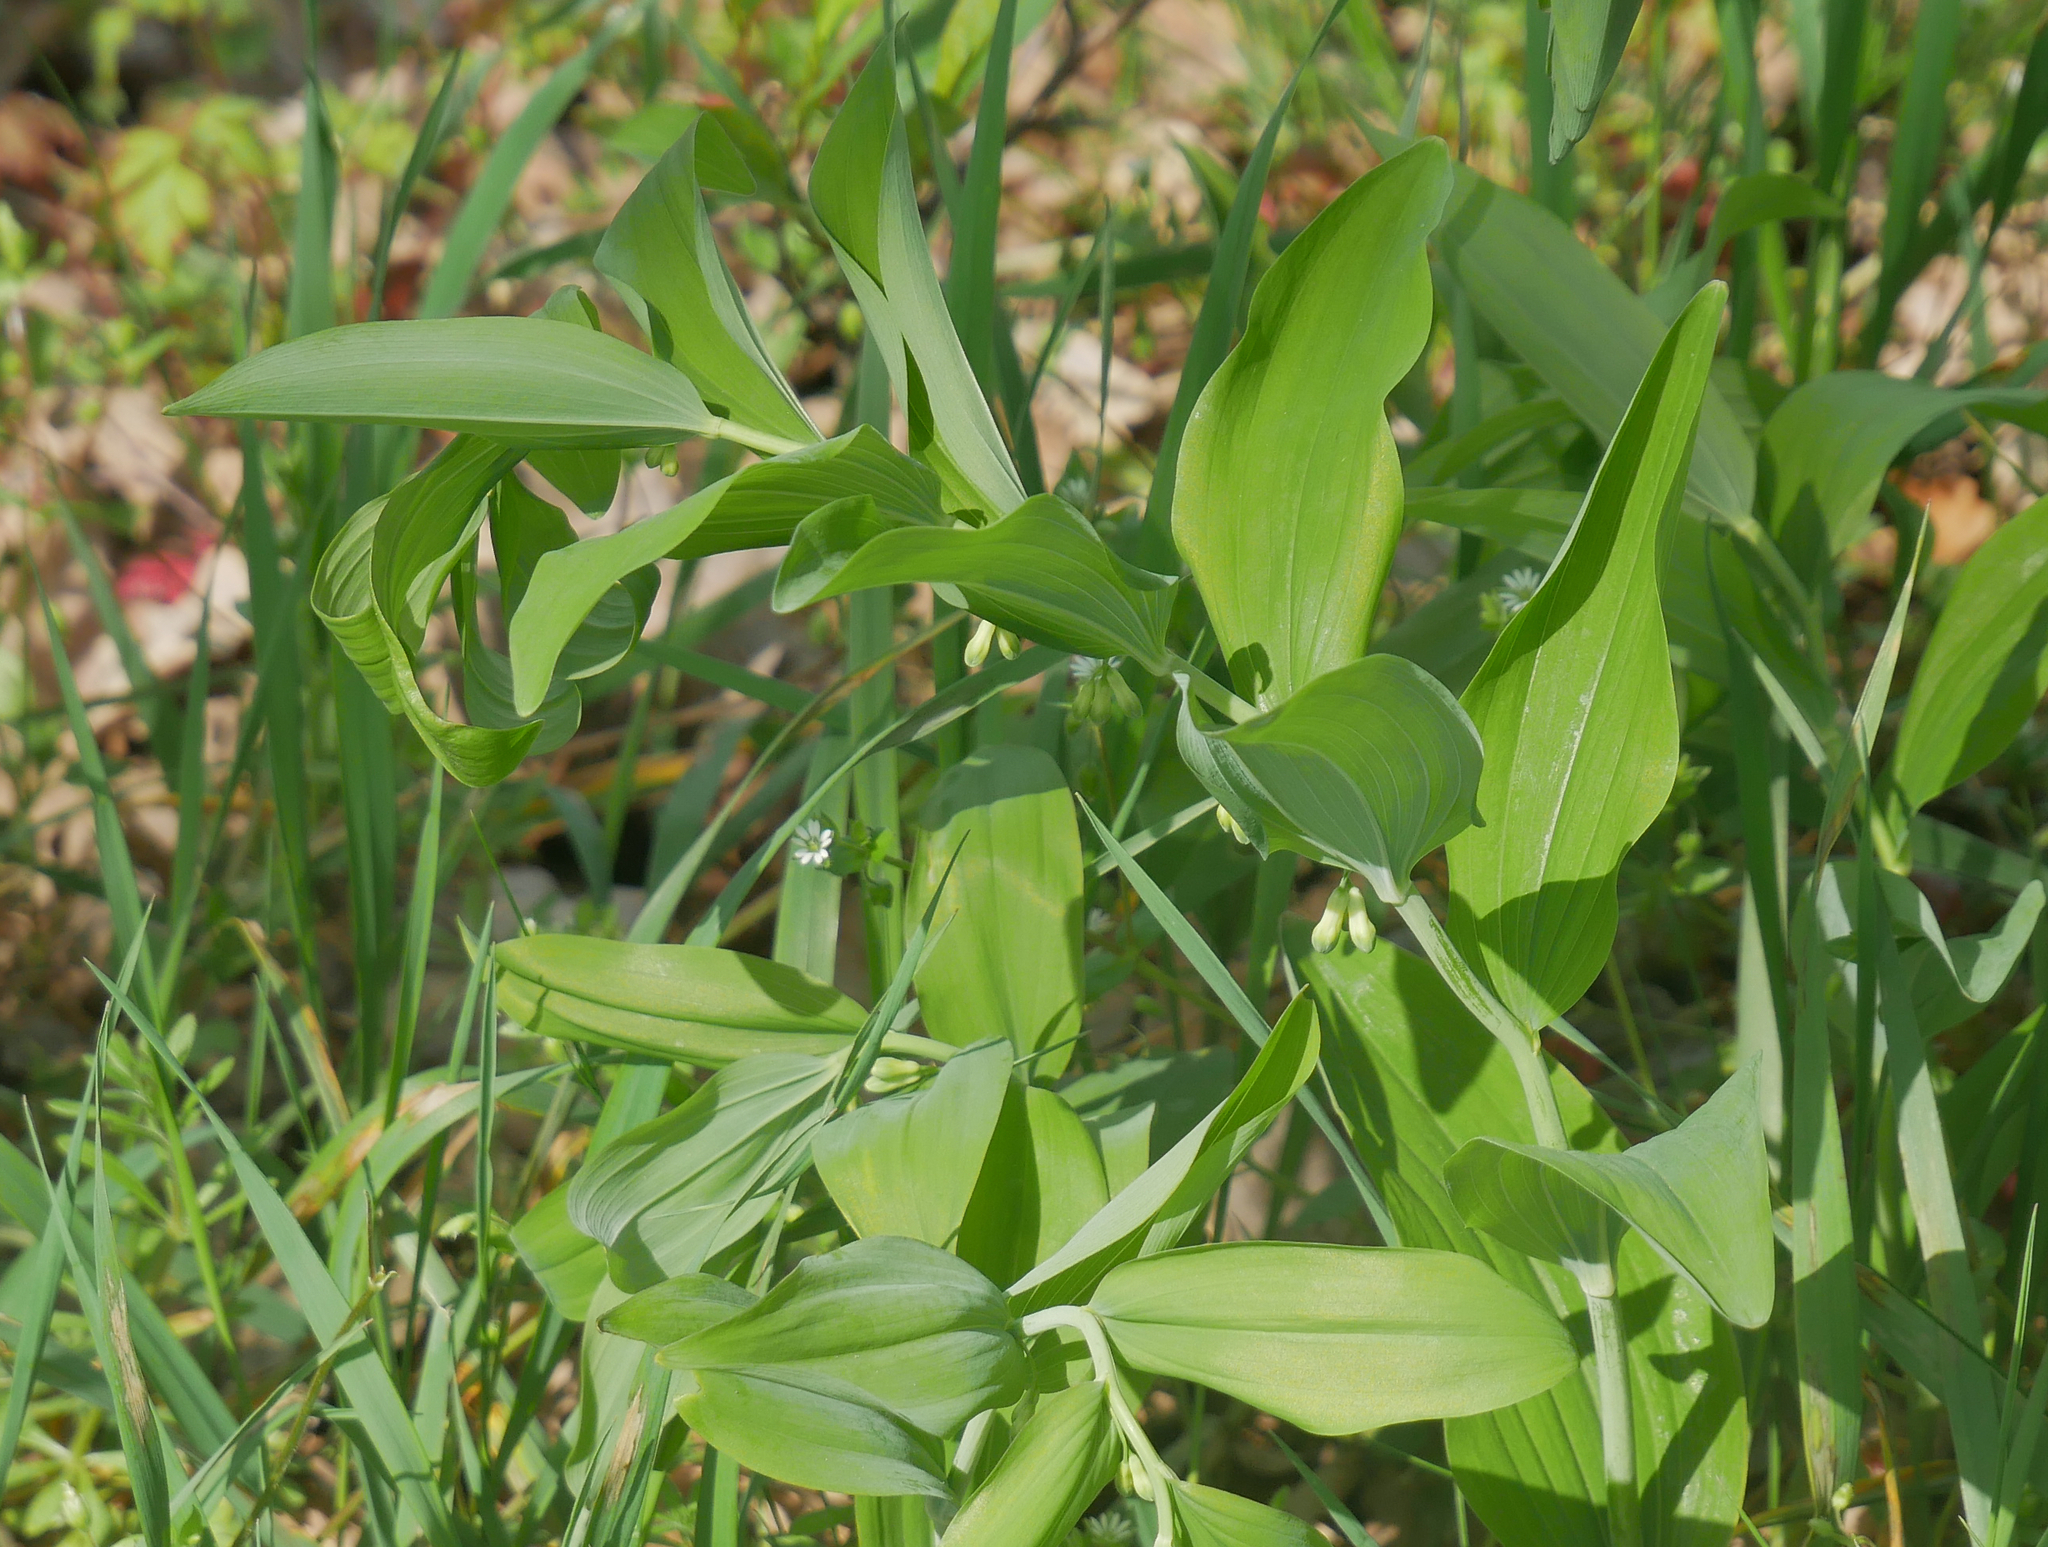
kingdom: Plantae
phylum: Tracheophyta
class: Liliopsida
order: Asparagales
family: Asparagaceae
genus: Polygonatum
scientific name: Polygonatum multiflorum
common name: Solomon's-seal
